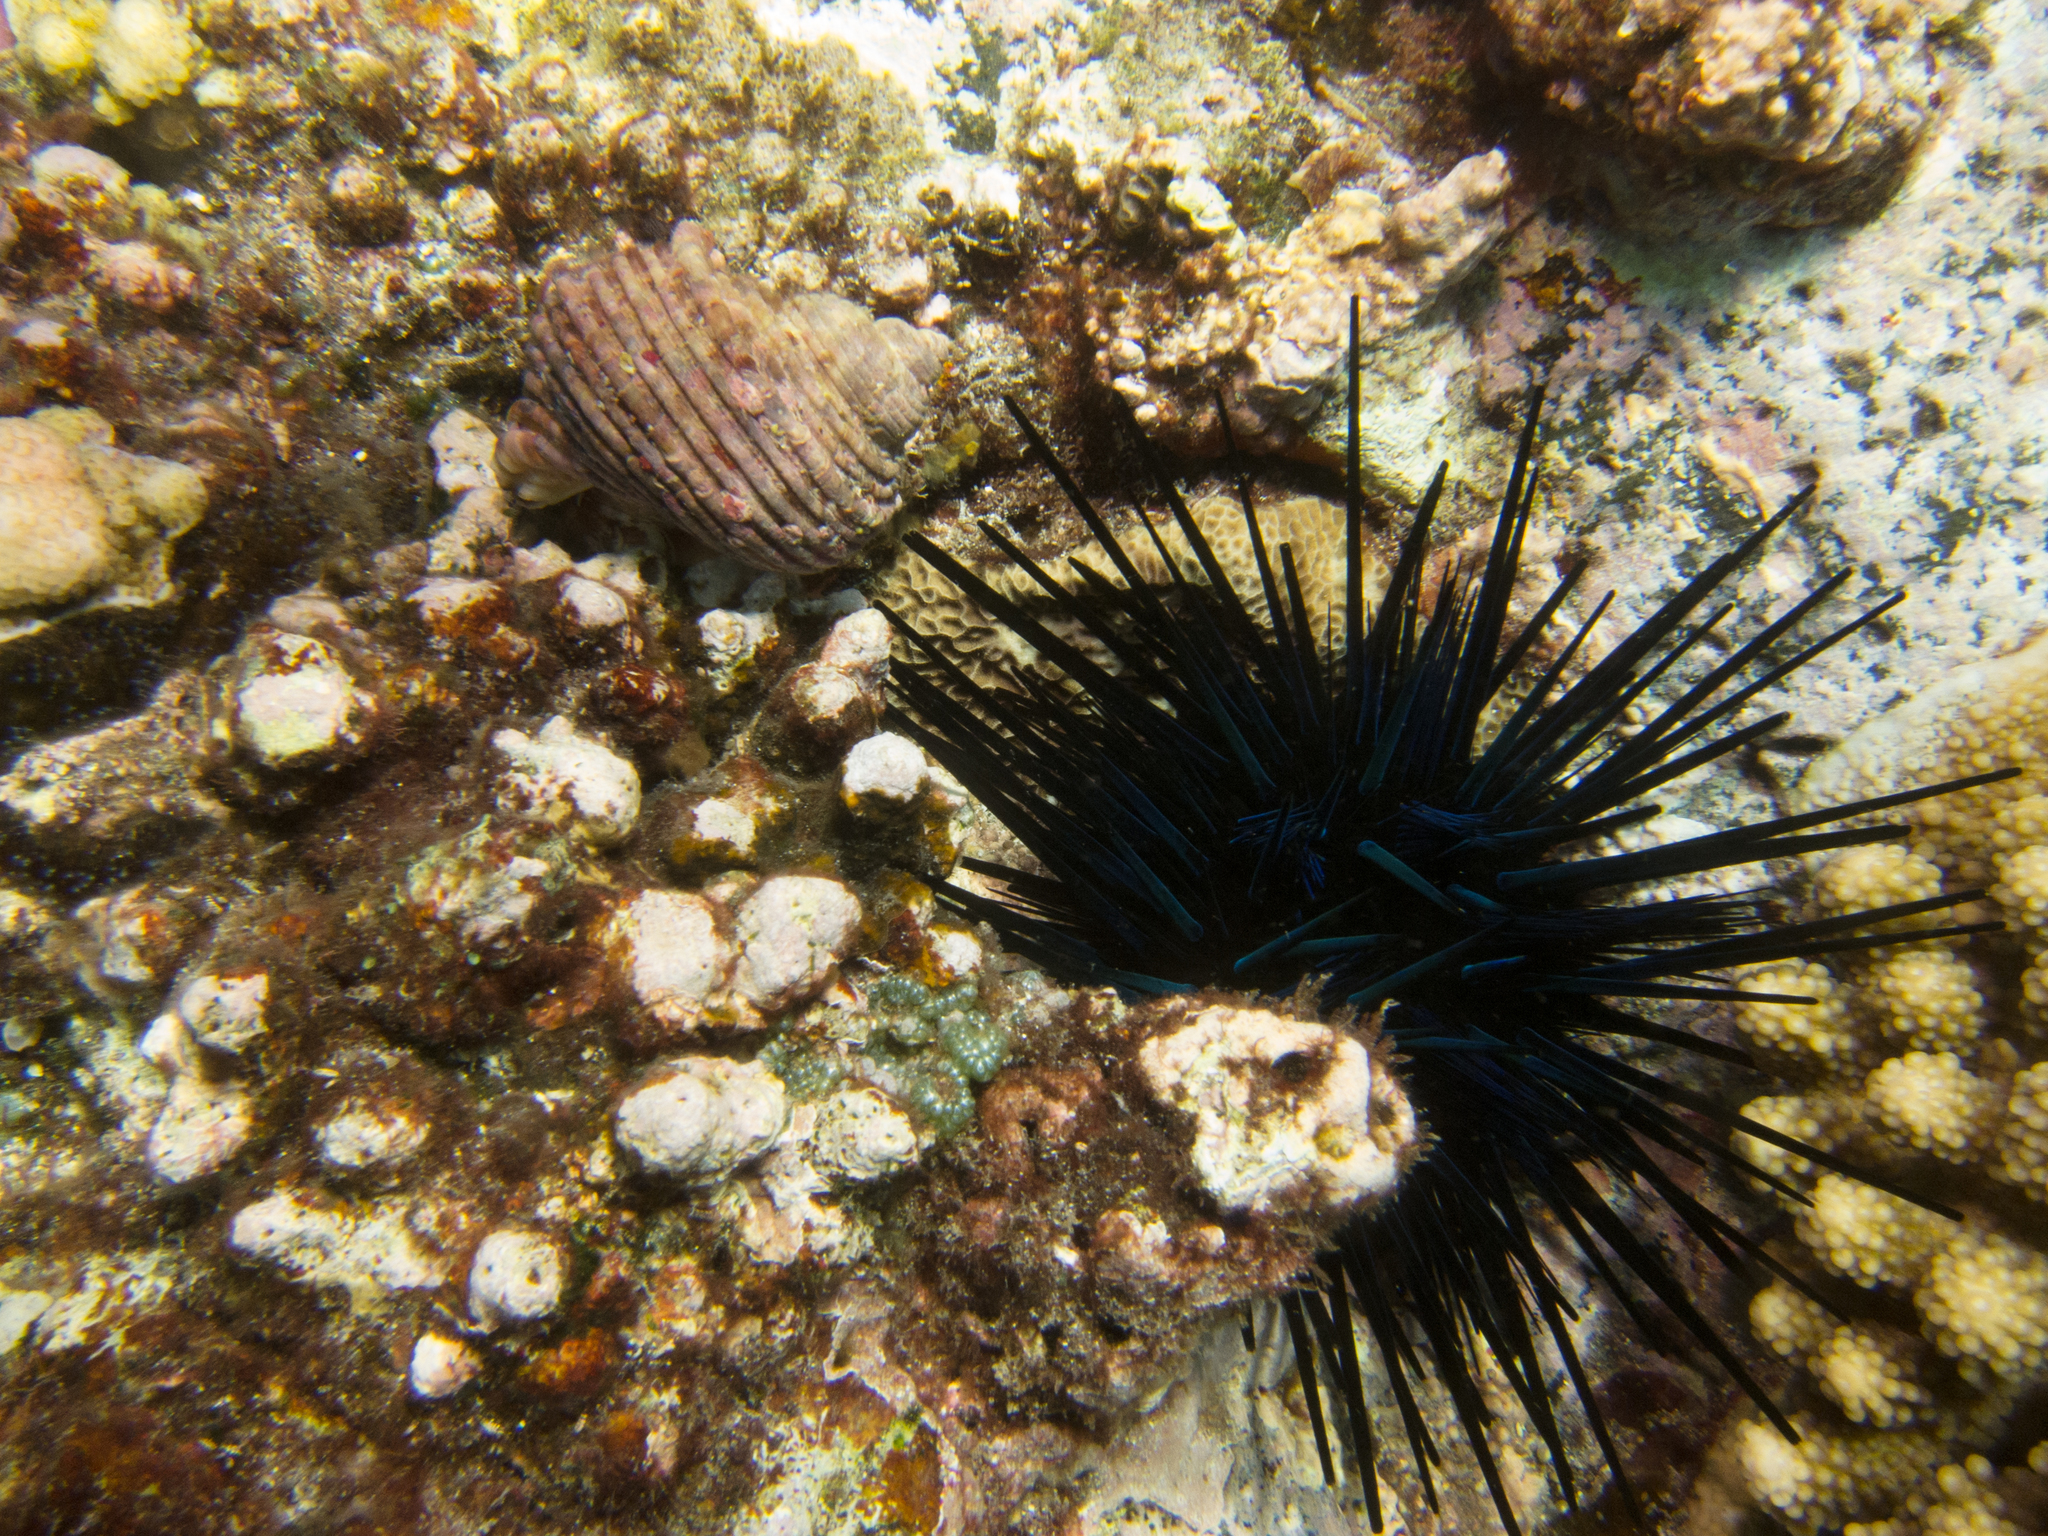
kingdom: Animalia
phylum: Echinodermata
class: Echinoidea
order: Diadematoida
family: Diadematidae
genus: Echinothrix
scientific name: Echinothrix diadema
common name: Schwarzer diademseeigel
